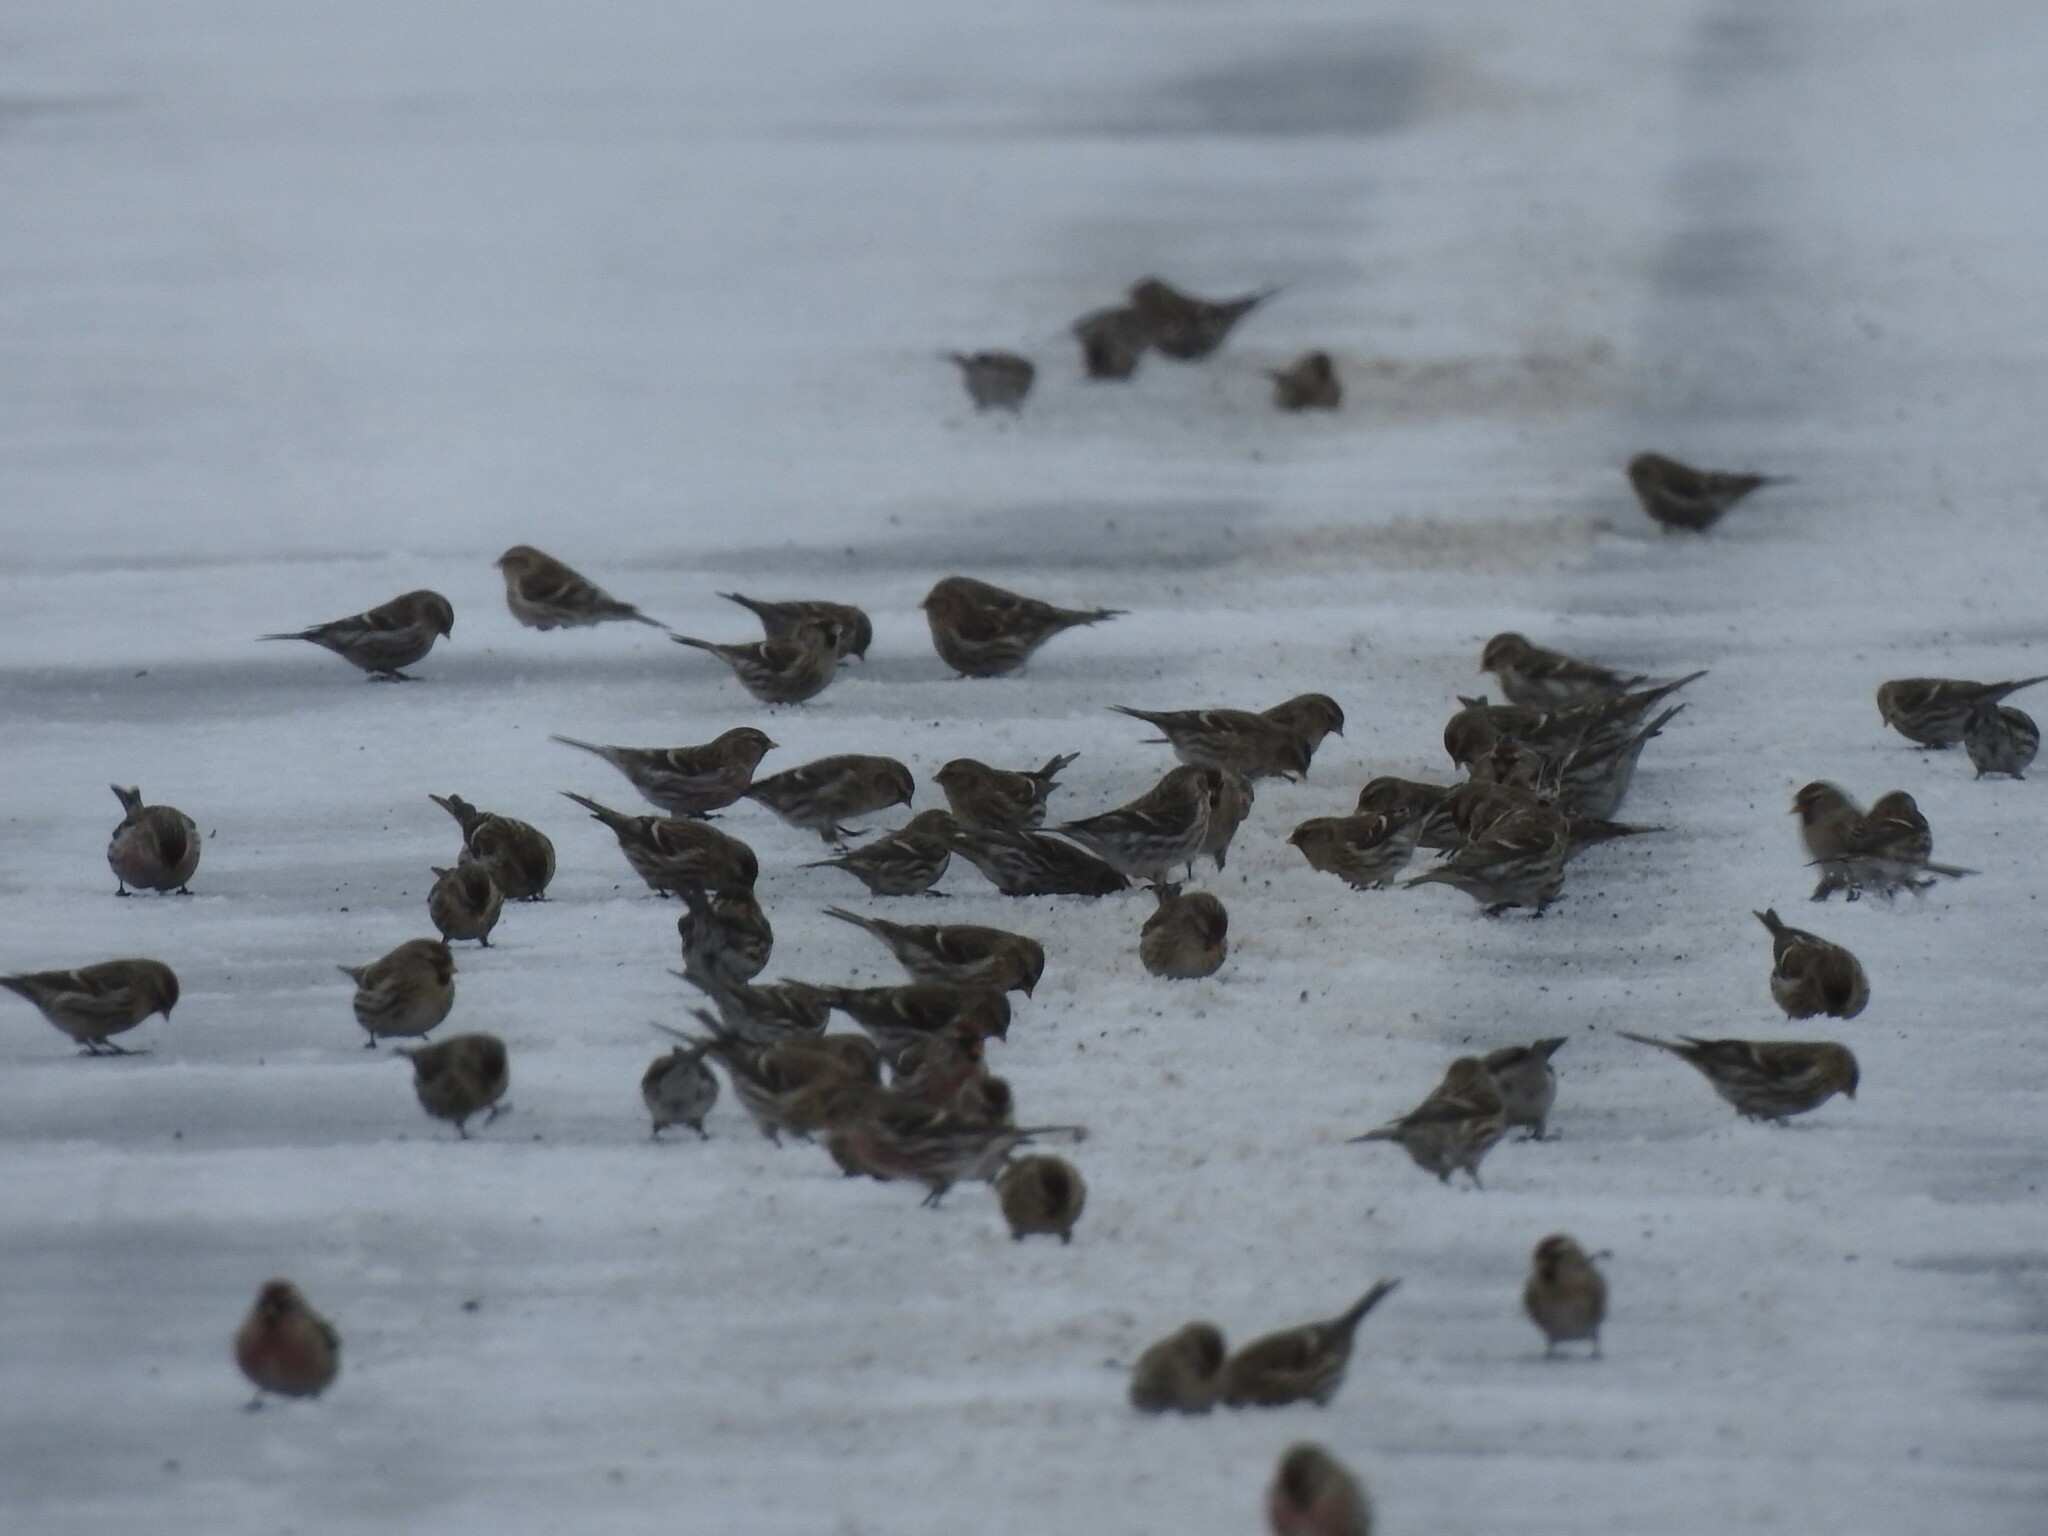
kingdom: Animalia
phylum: Chordata
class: Aves
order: Passeriformes
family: Fringillidae
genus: Acanthis
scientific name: Acanthis flammea
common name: Common redpoll
